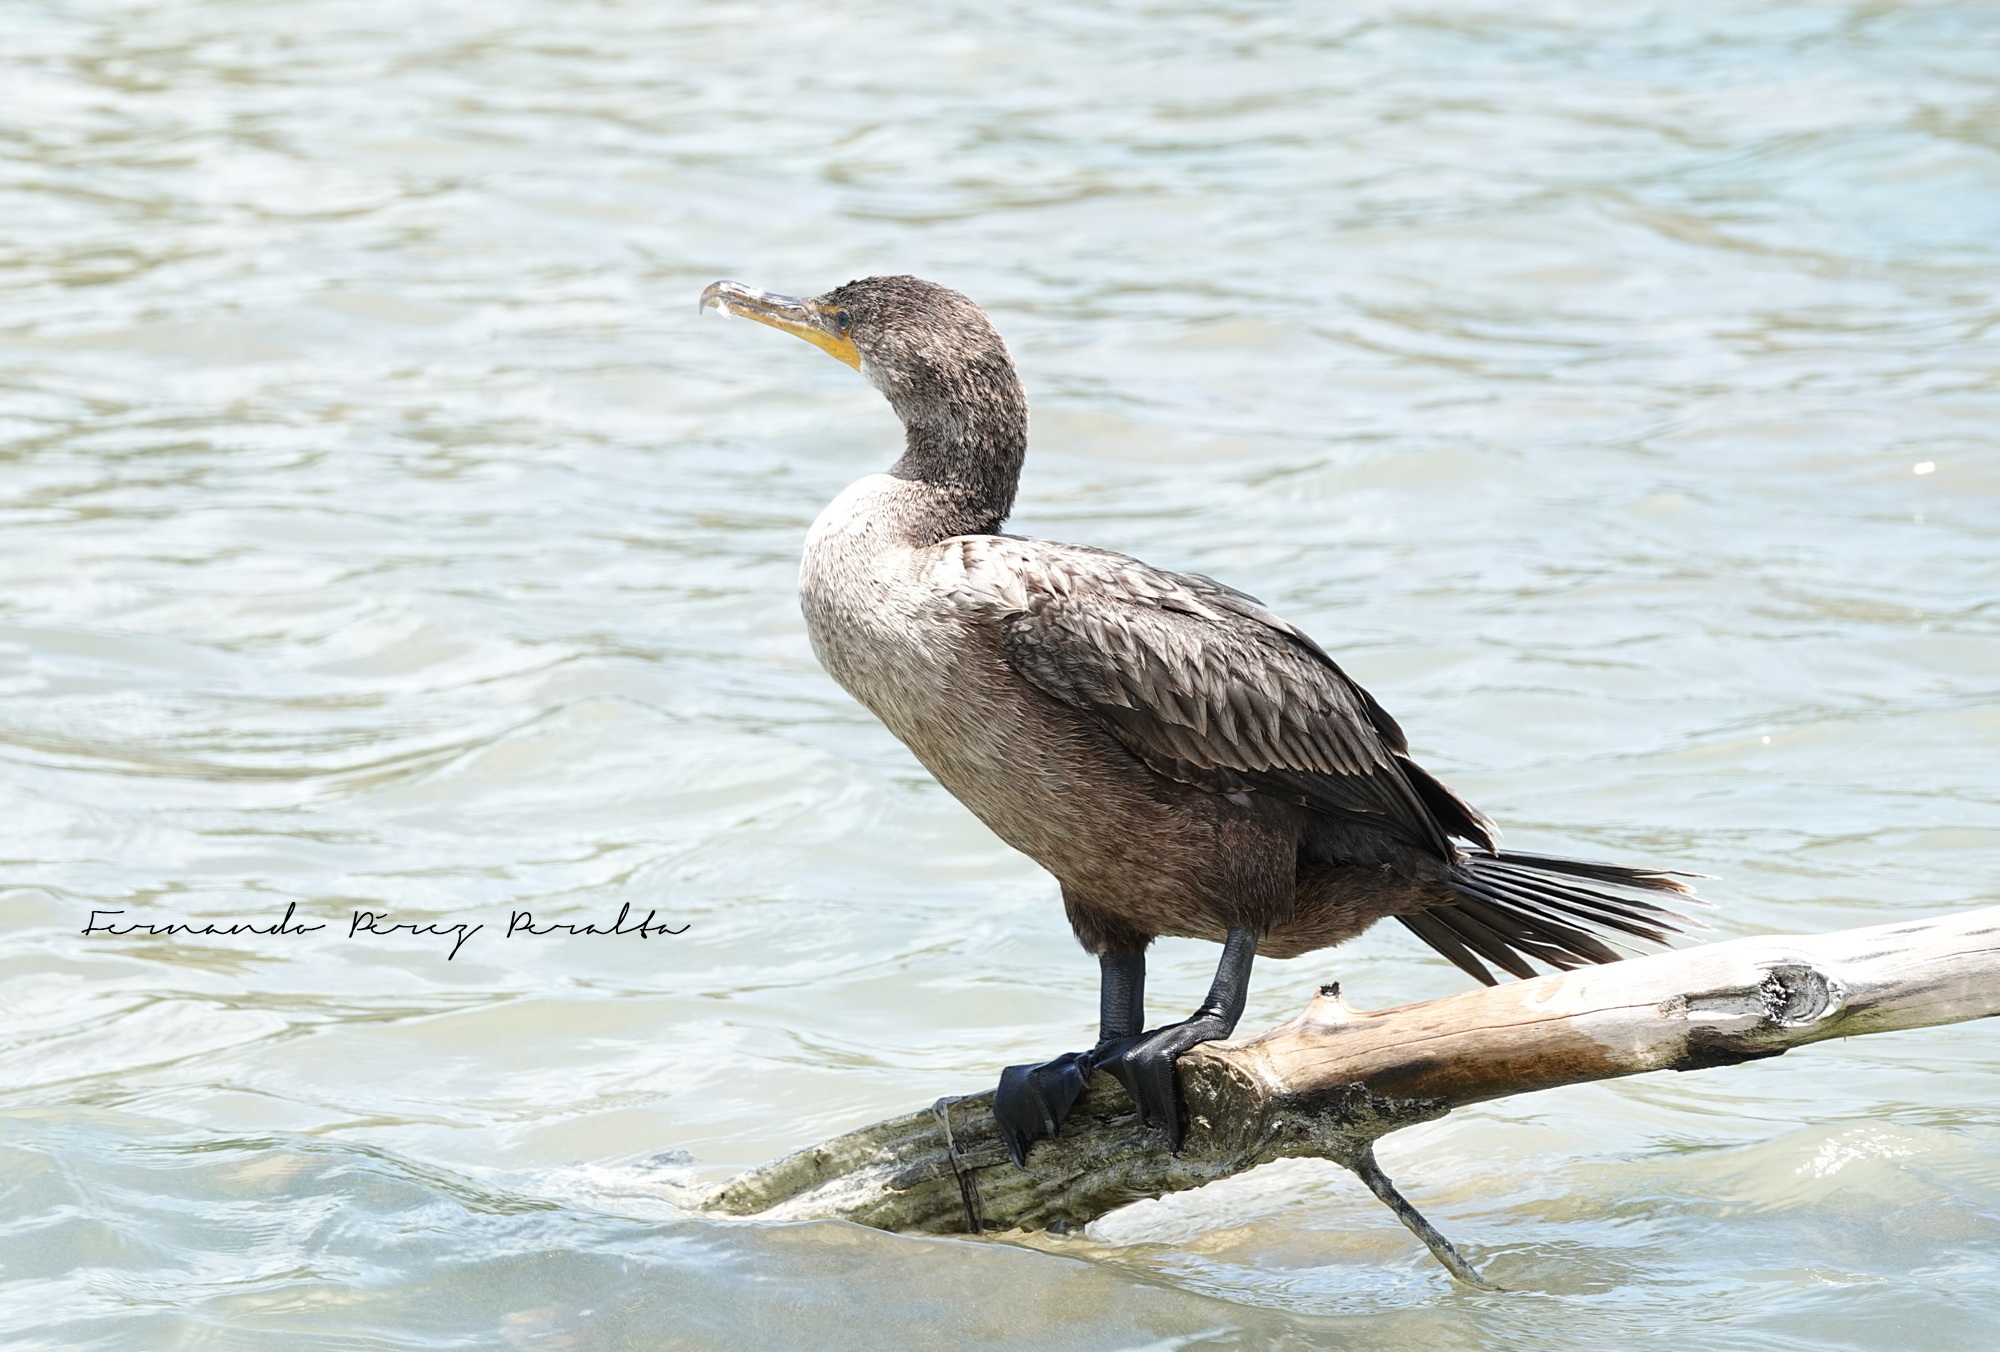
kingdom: Animalia
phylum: Chordata
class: Aves
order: Suliformes
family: Phalacrocoracidae
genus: Phalacrocorax
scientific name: Phalacrocorax auritus
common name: Double-crested cormorant
